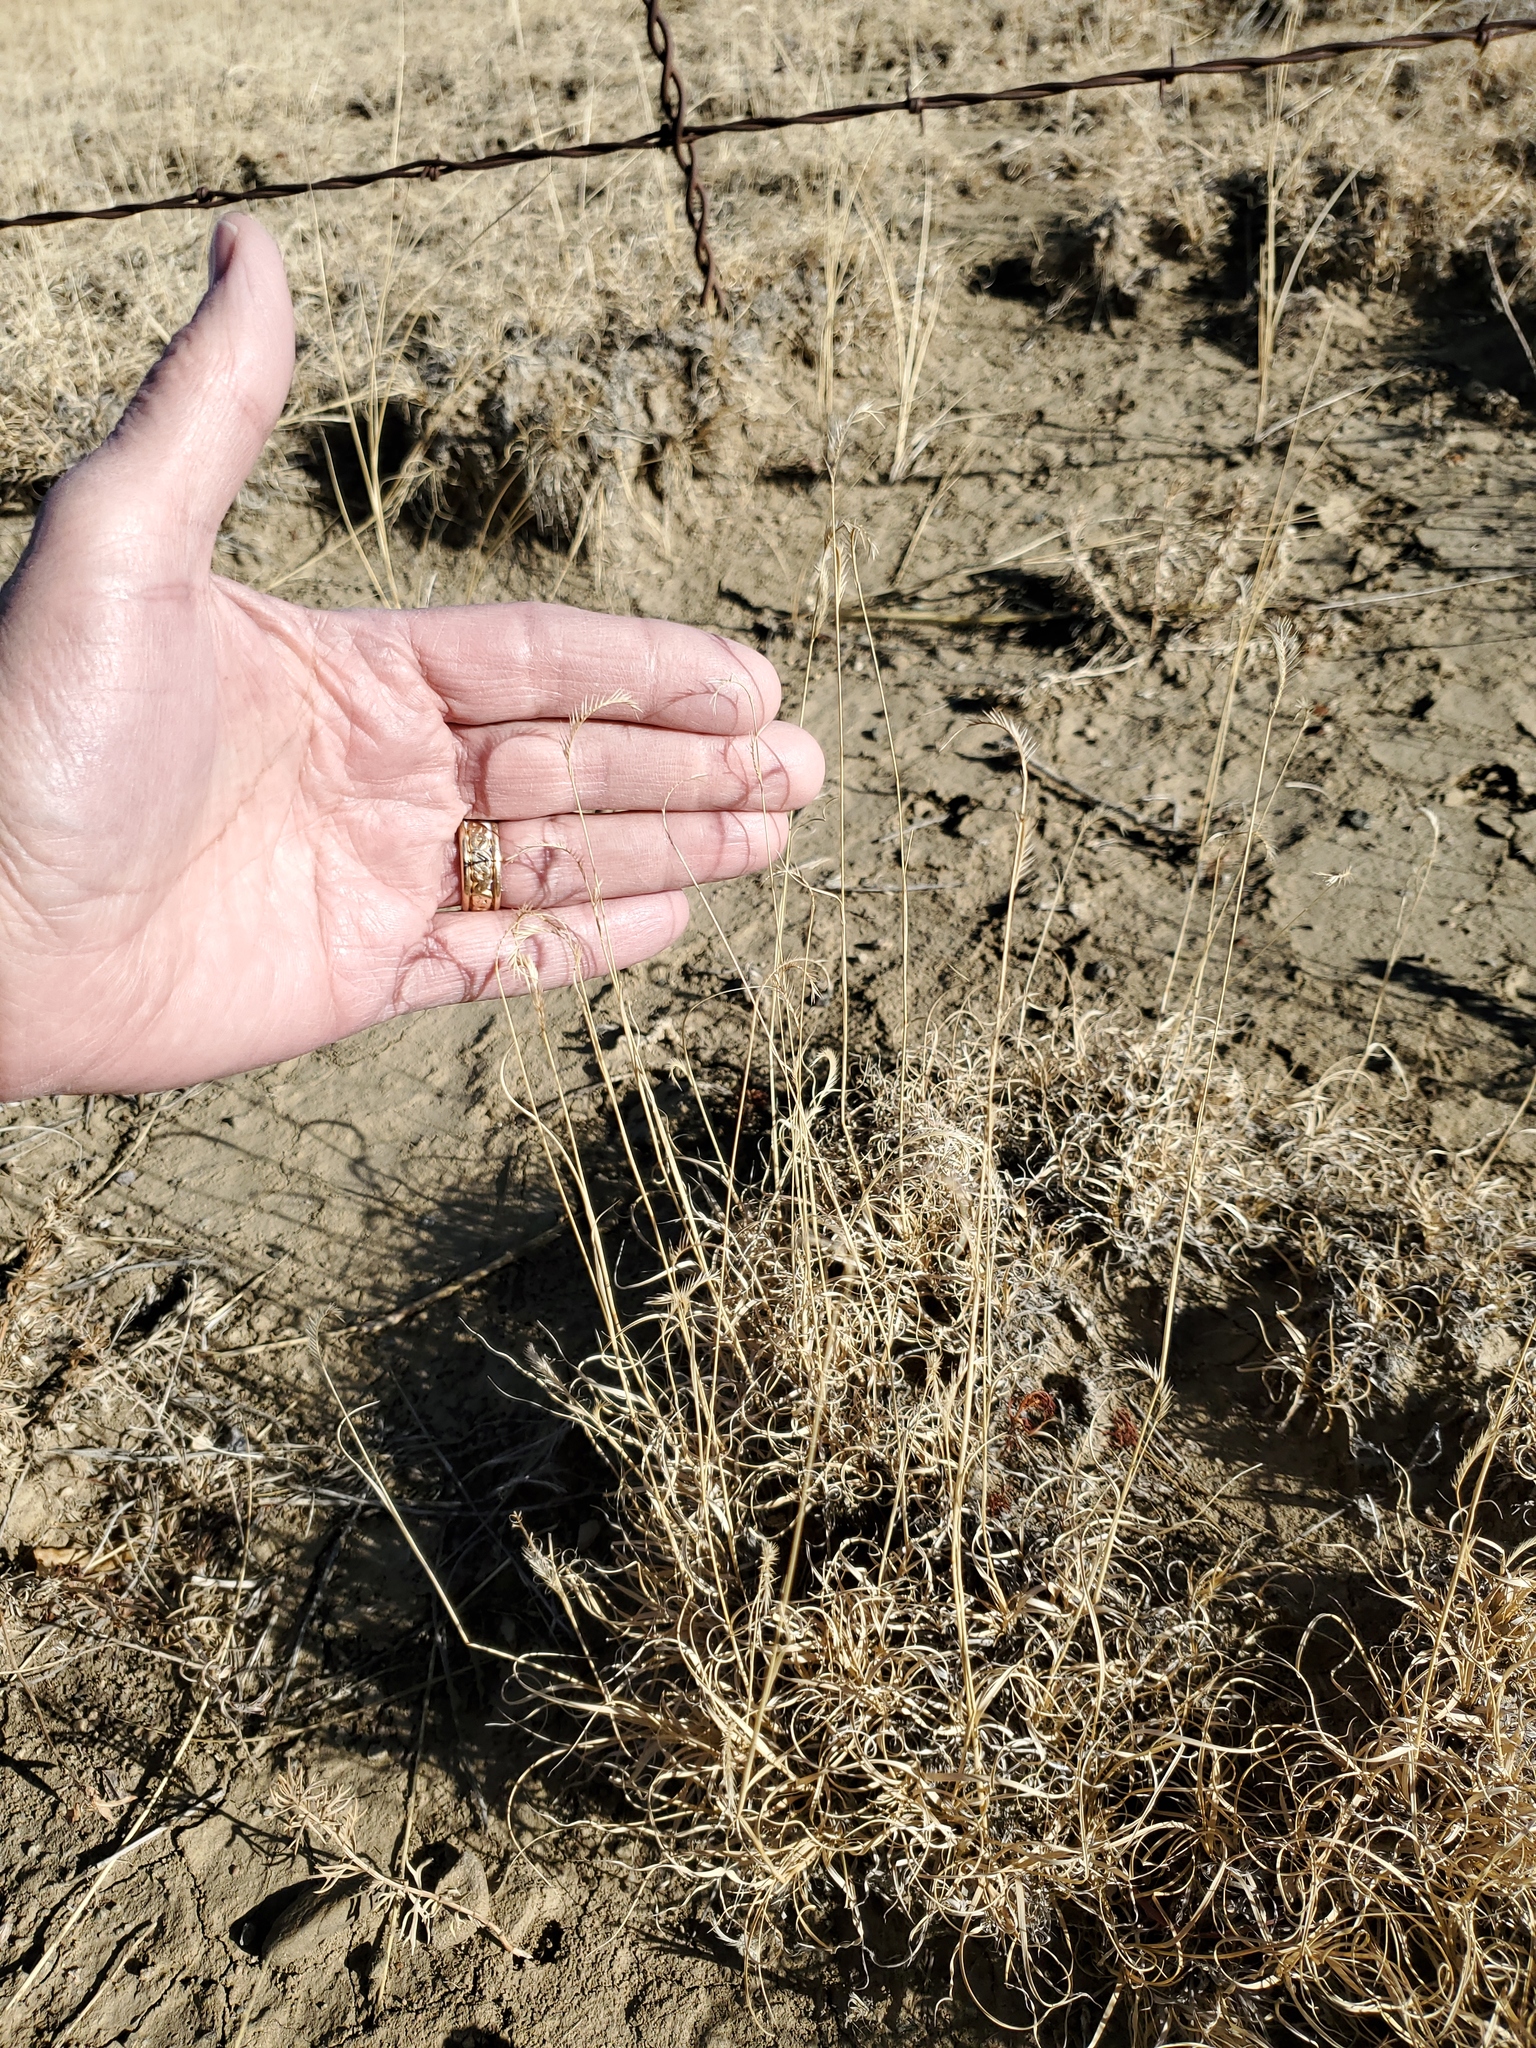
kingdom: Plantae
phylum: Tracheophyta
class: Liliopsida
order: Poales
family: Poaceae
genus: Bouteloua
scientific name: Bouteloua gracilis
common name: Blue grama
